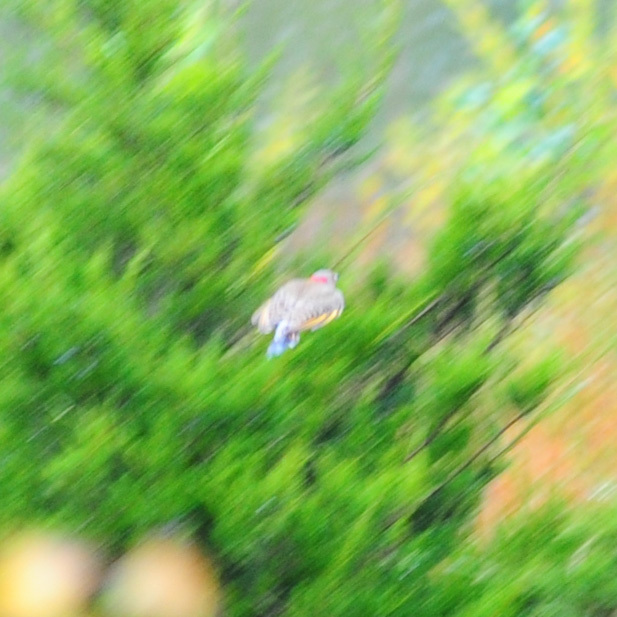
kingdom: Animalia
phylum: Chordata
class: Aves
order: Piciformes
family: Picidae
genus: Colaptes
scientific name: Colaptes auratus
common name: Northern flicker
